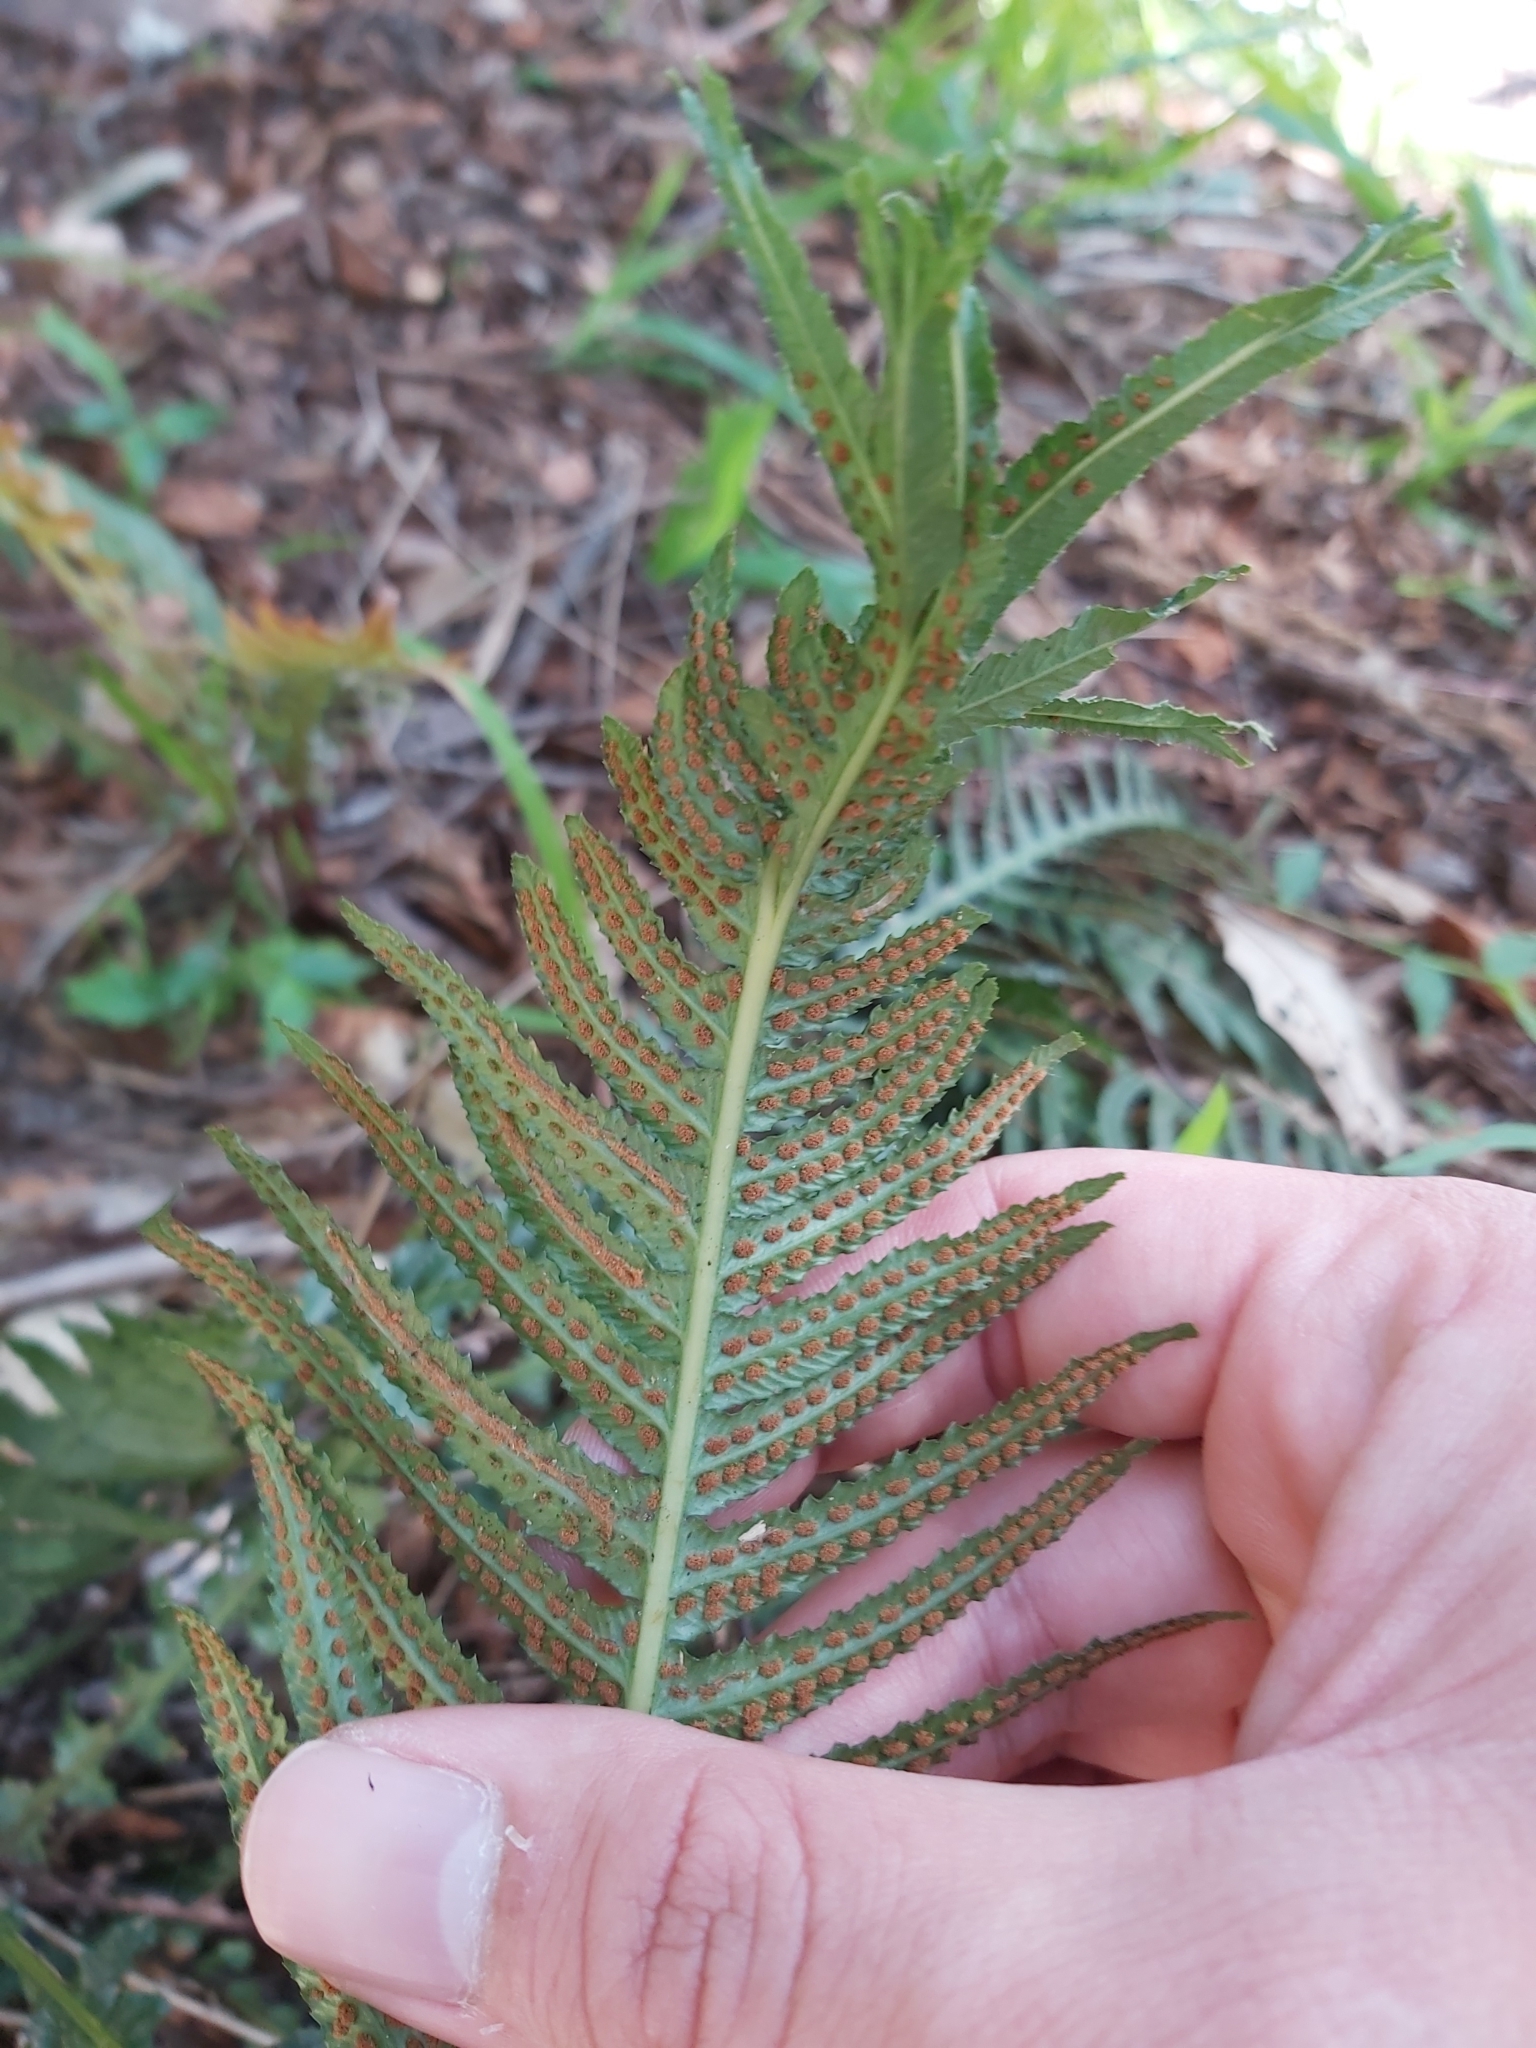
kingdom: Plantae
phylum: Tracheophyta
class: Polypodiopsida
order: Polypodiales
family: Blechnaceae
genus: Doodia
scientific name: Doodia aspera
